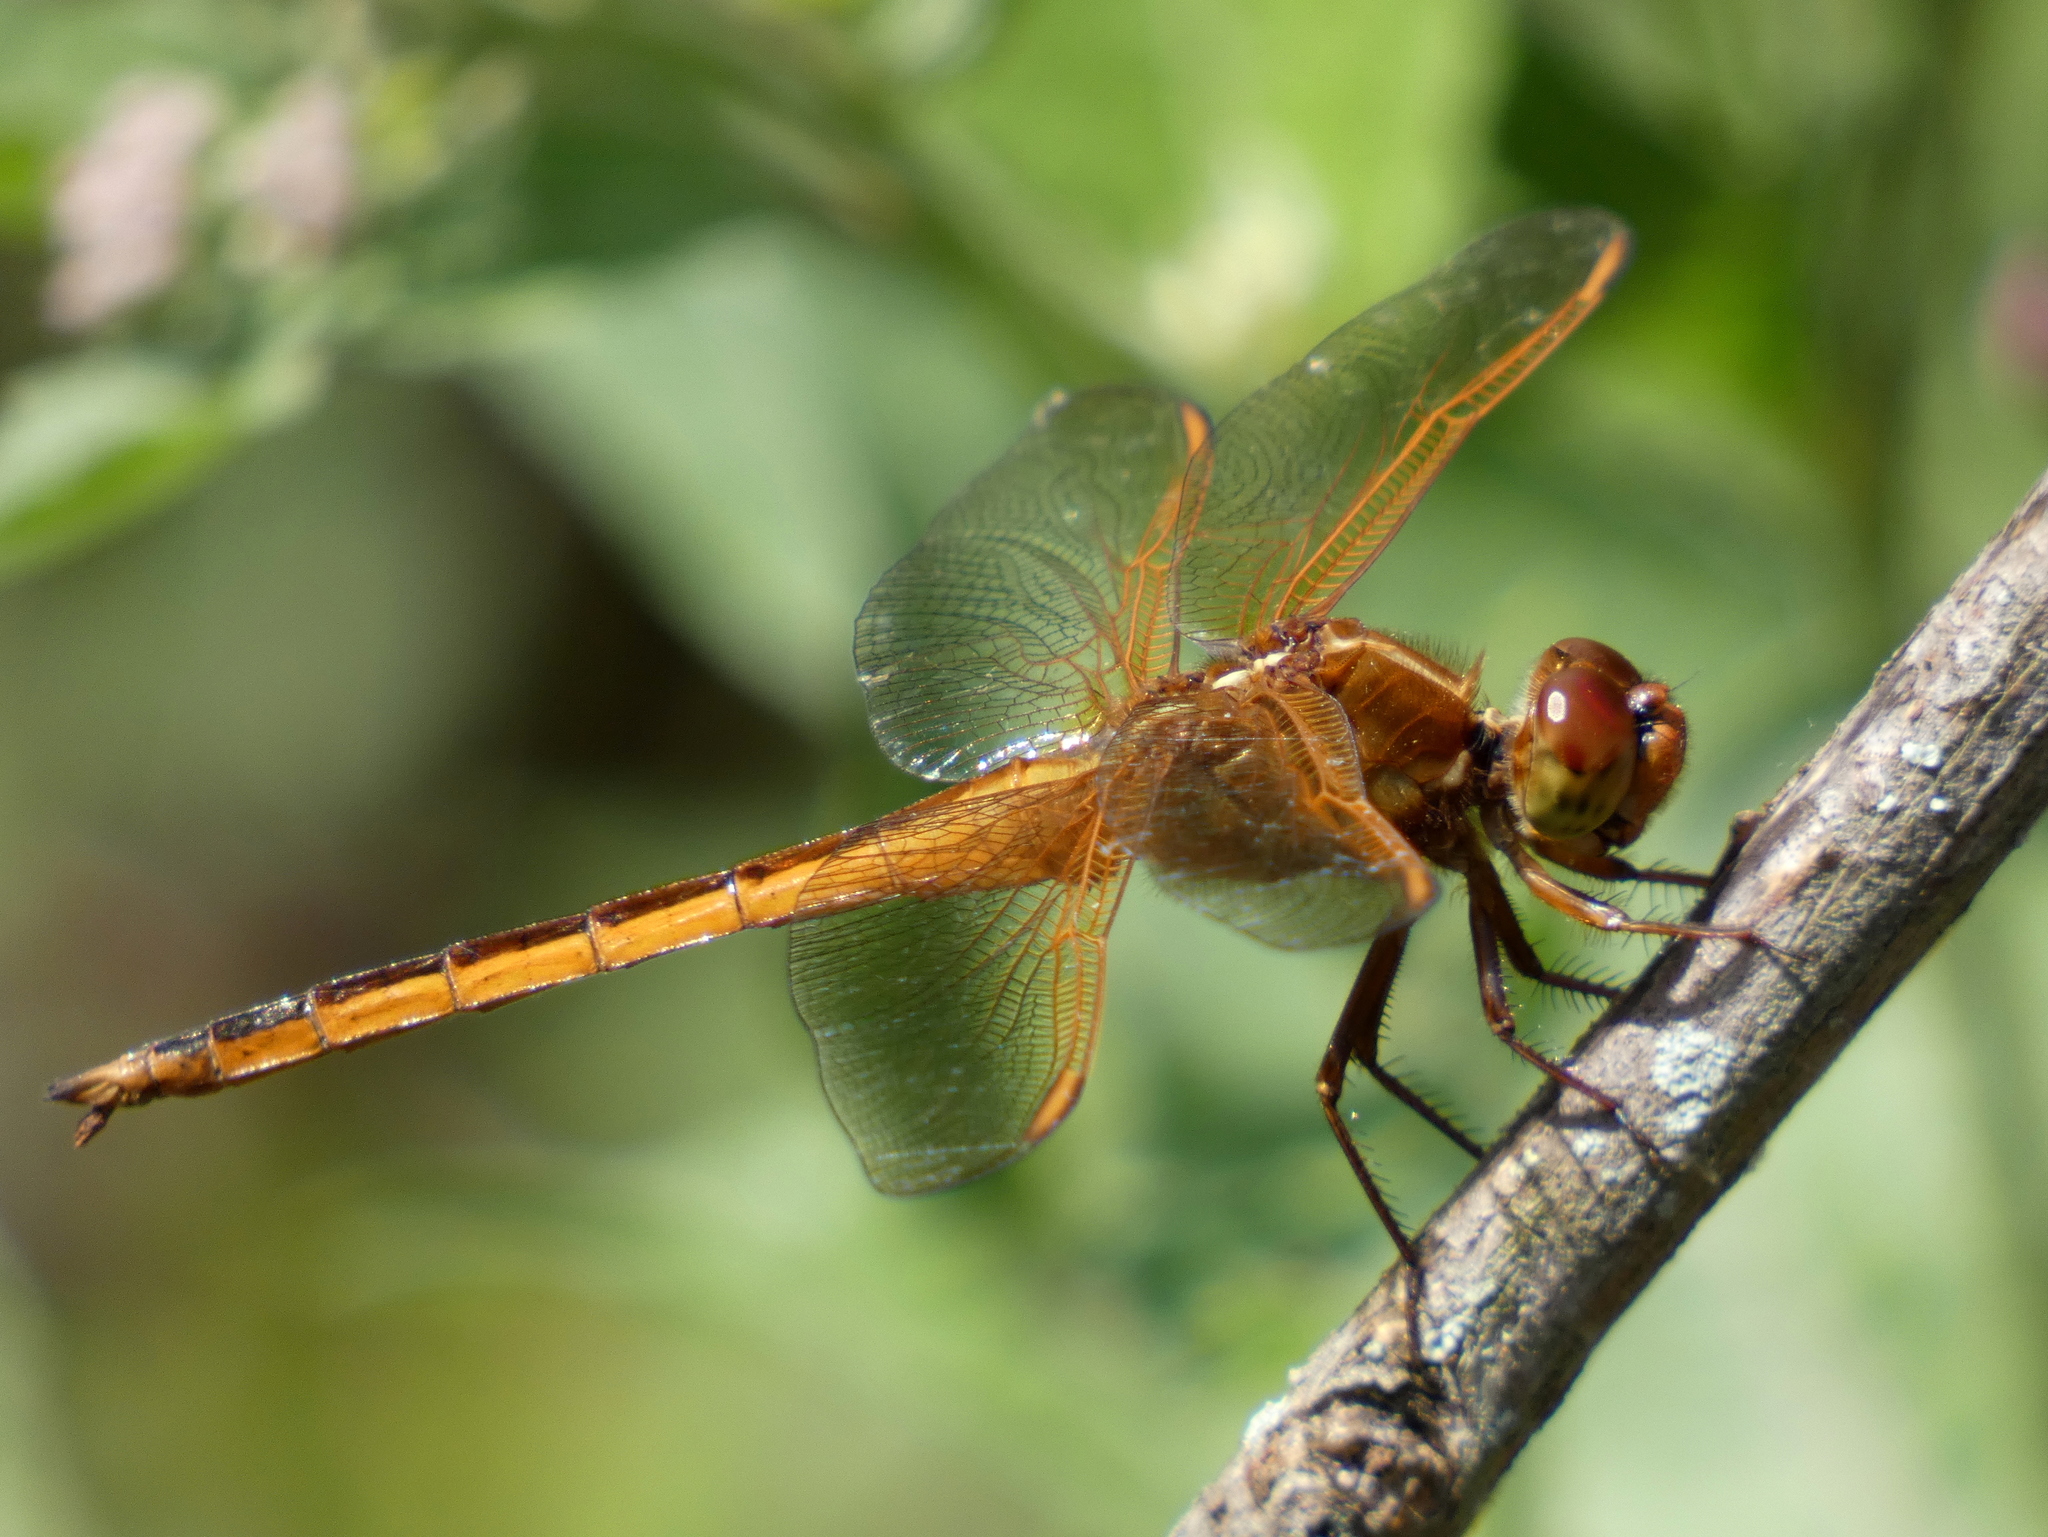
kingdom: Animalia
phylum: Arthropoda
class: Insecta
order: Odonata
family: Libellulidae
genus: Libellula
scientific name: Libellula needhami
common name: Needham's skimmer
